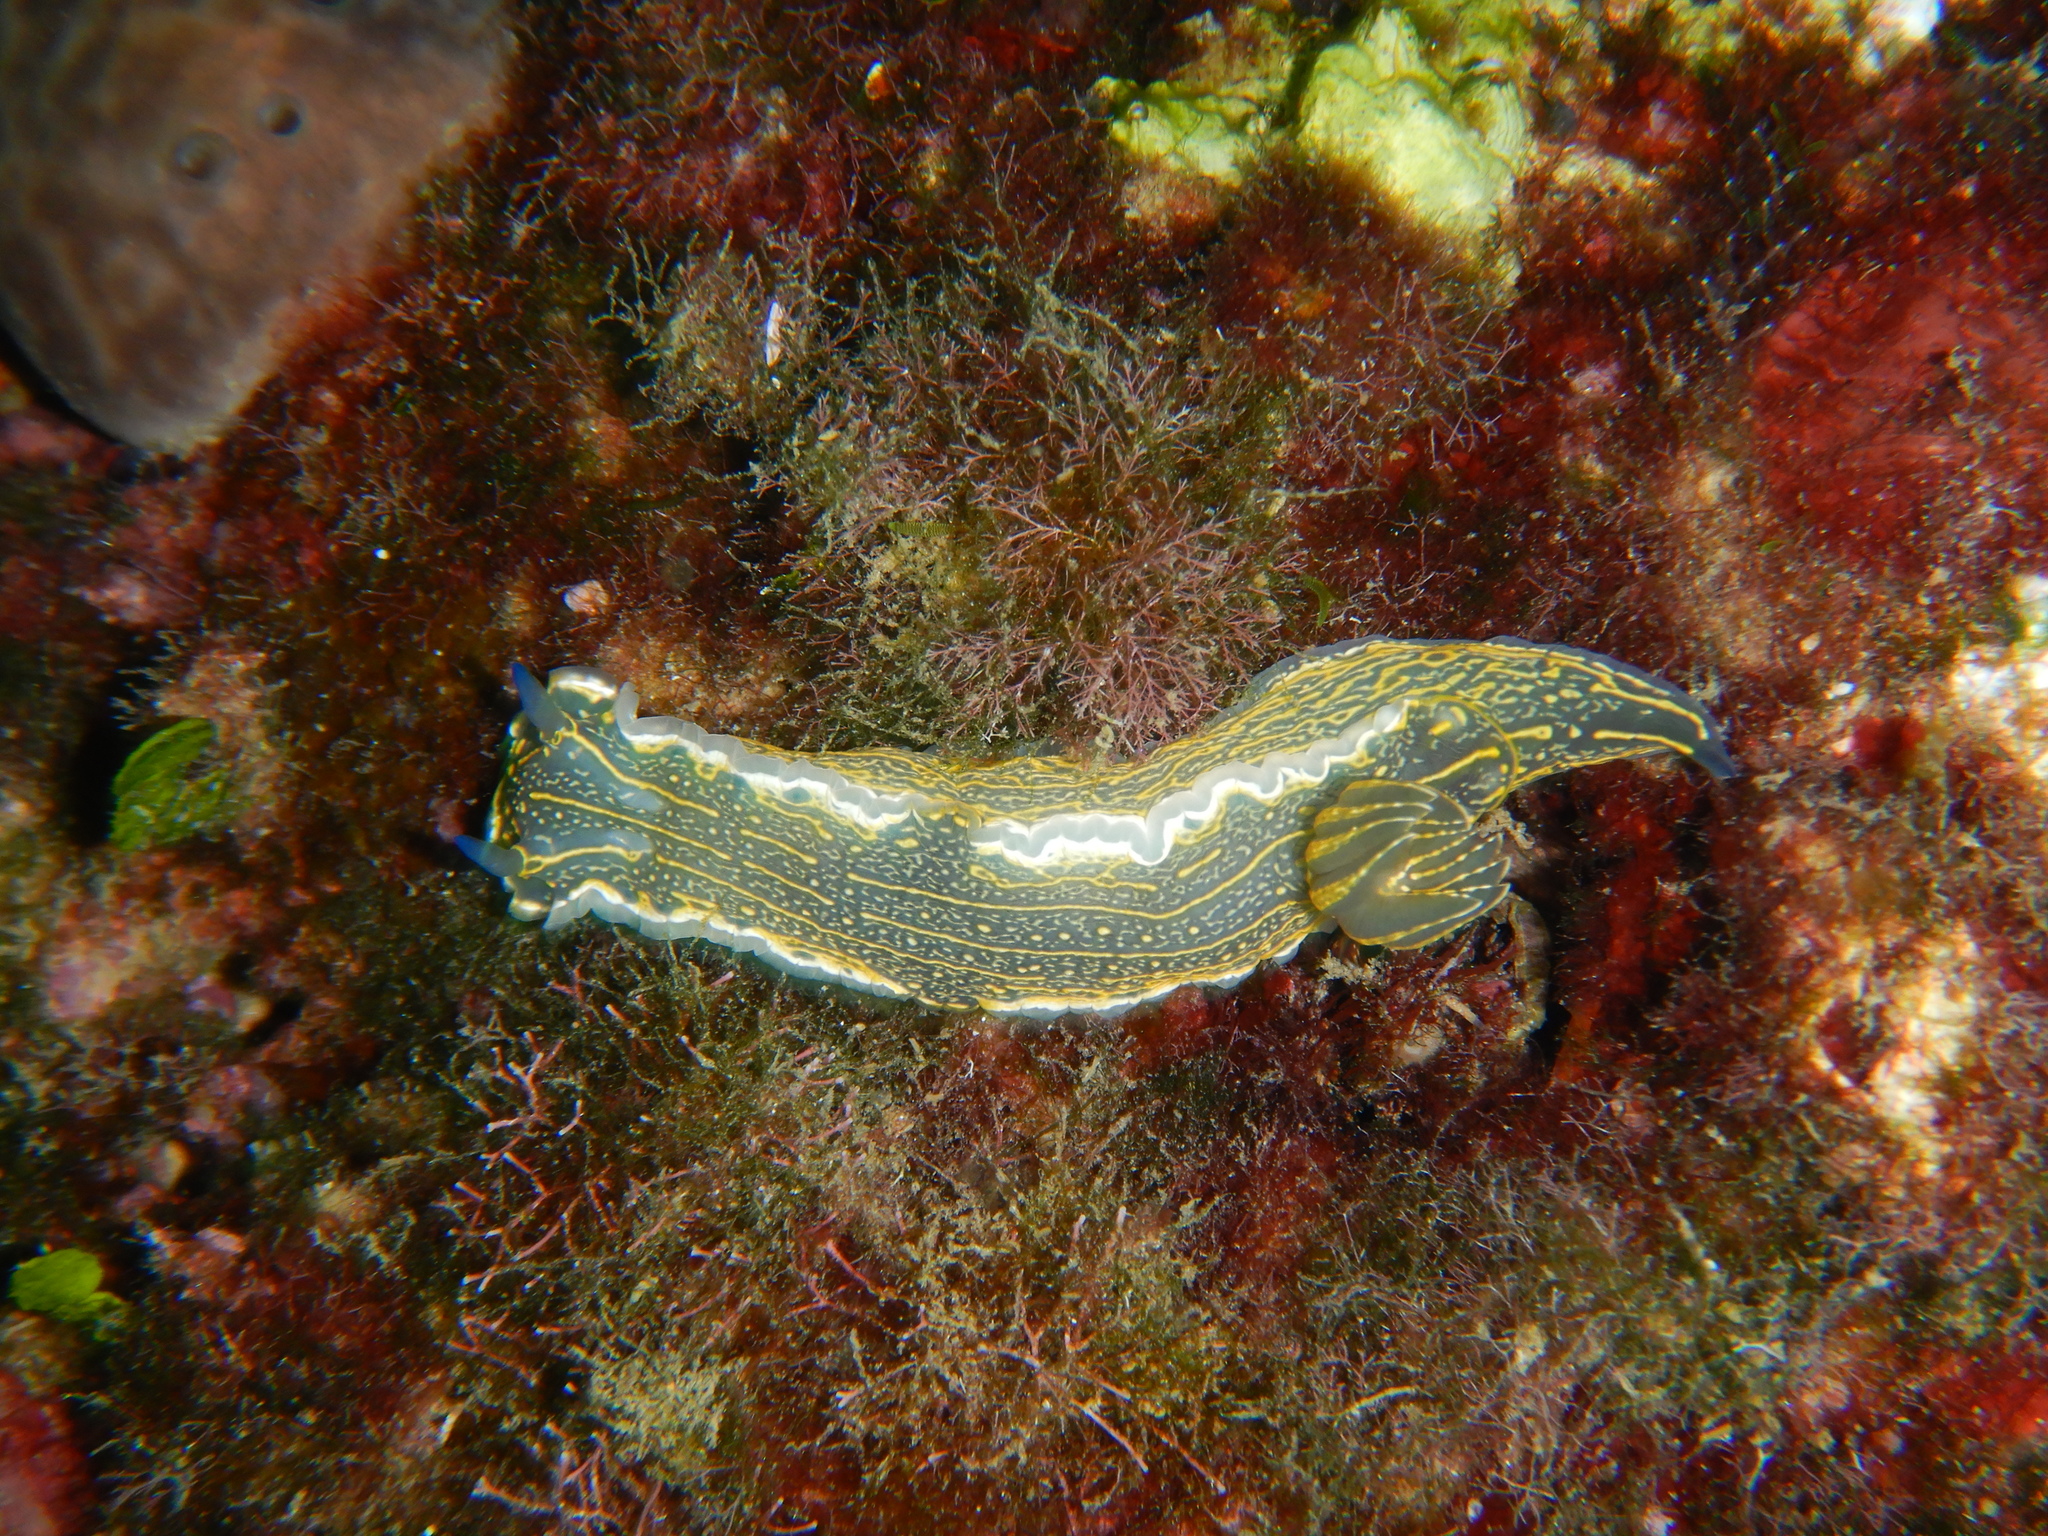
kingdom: Animalia
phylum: Mollusca
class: Gastropoda
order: Nudibranchia
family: Chromodorididae
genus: Felimare
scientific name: Felimare picta
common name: Giant doris
